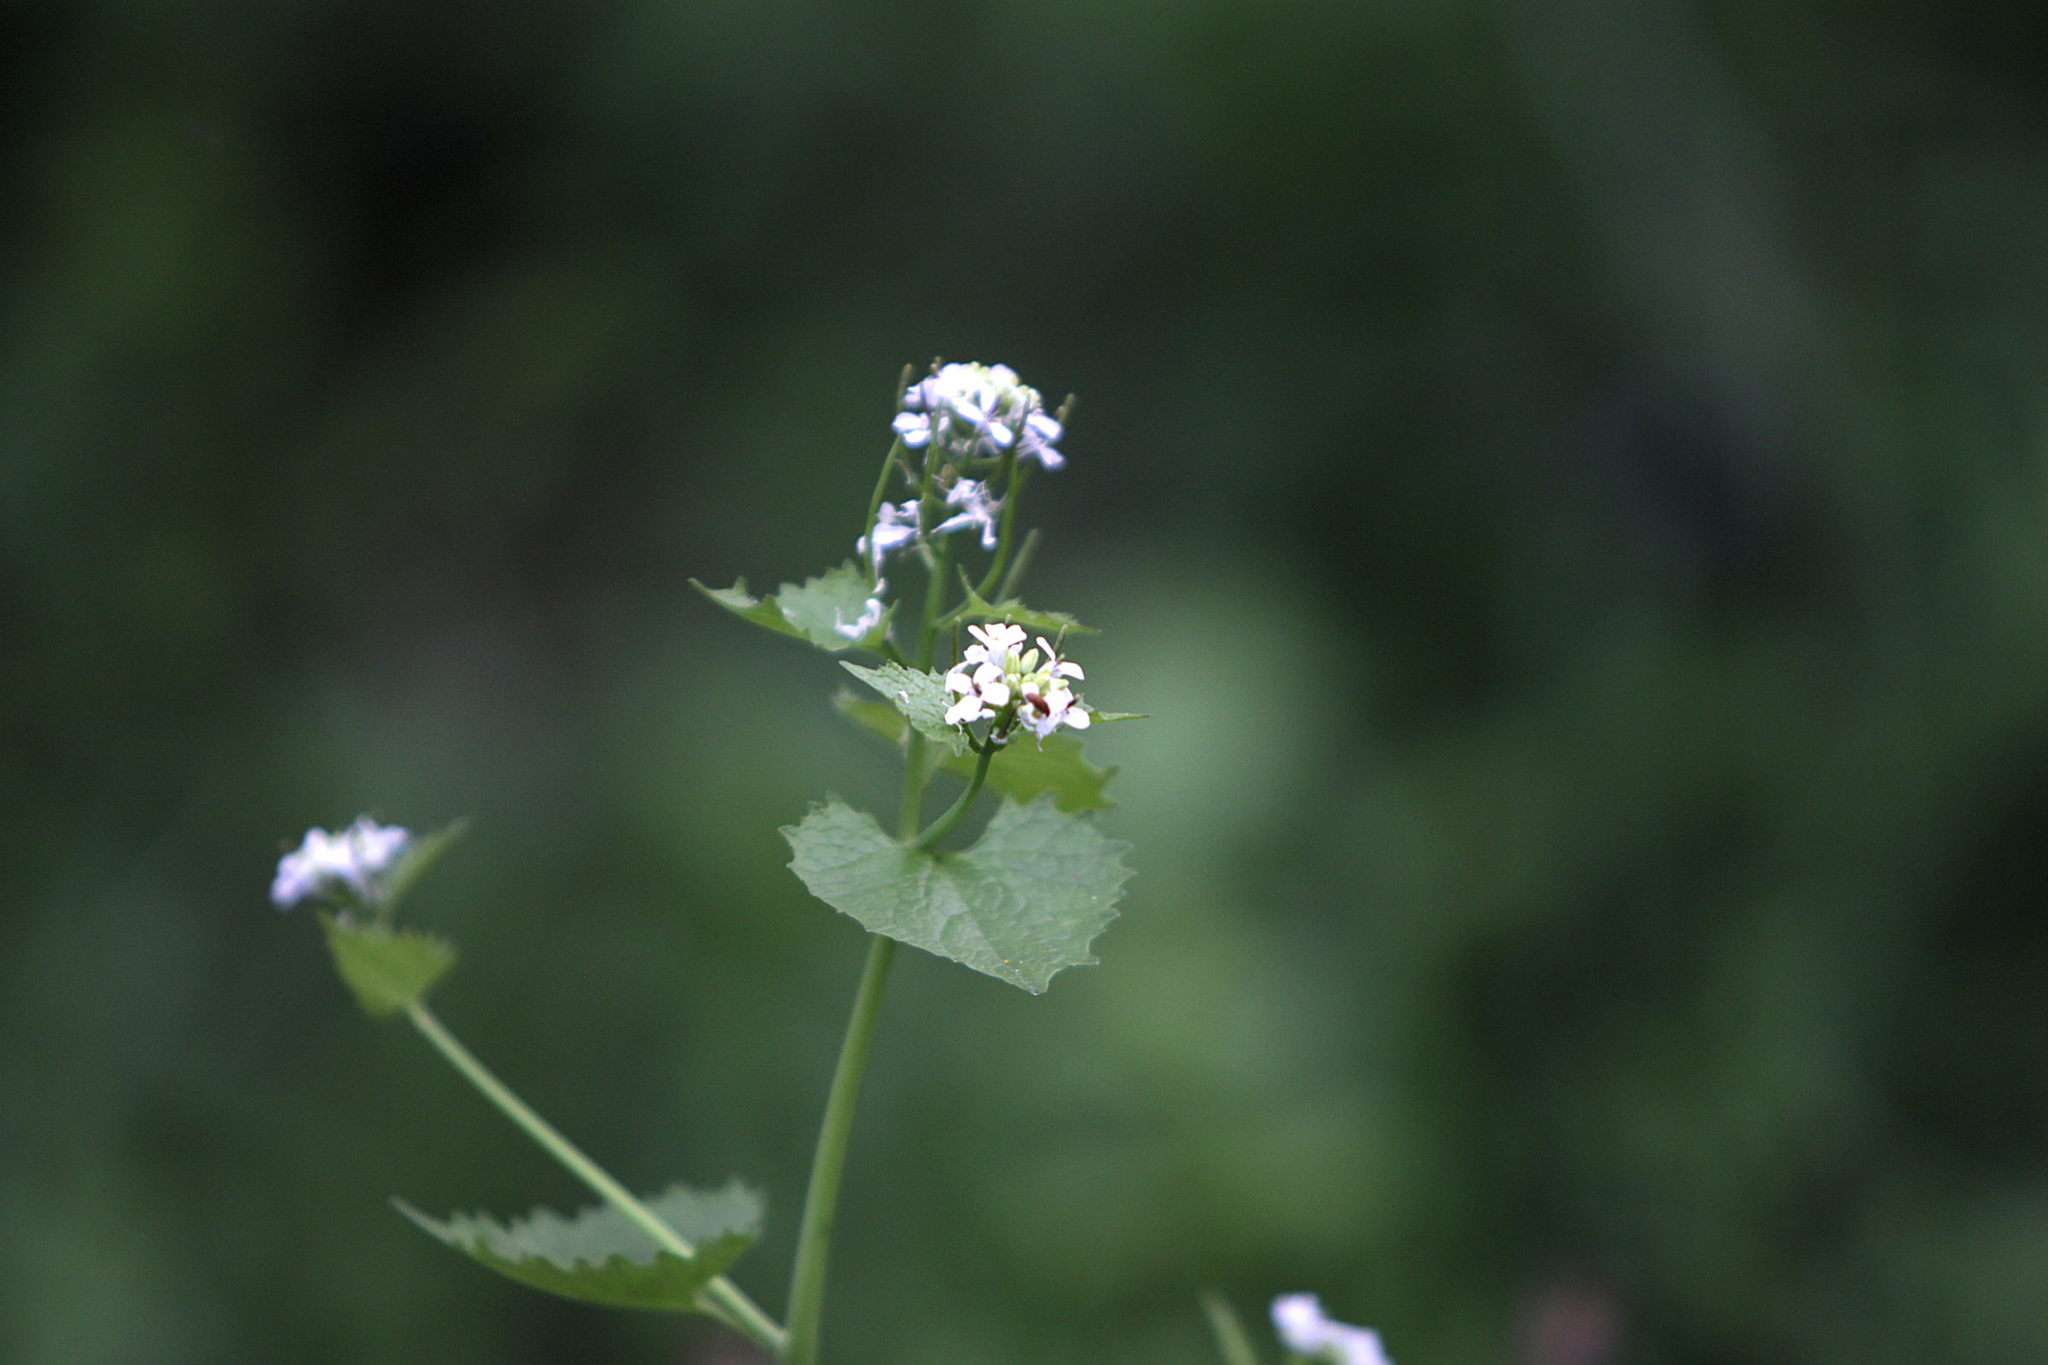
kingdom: Plantae
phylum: Tracheophyta
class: Magnoliopsida
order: Brassicales
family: Brassicaceae
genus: Alliaria
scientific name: Alliaria petiolata
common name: Garlic mustard
